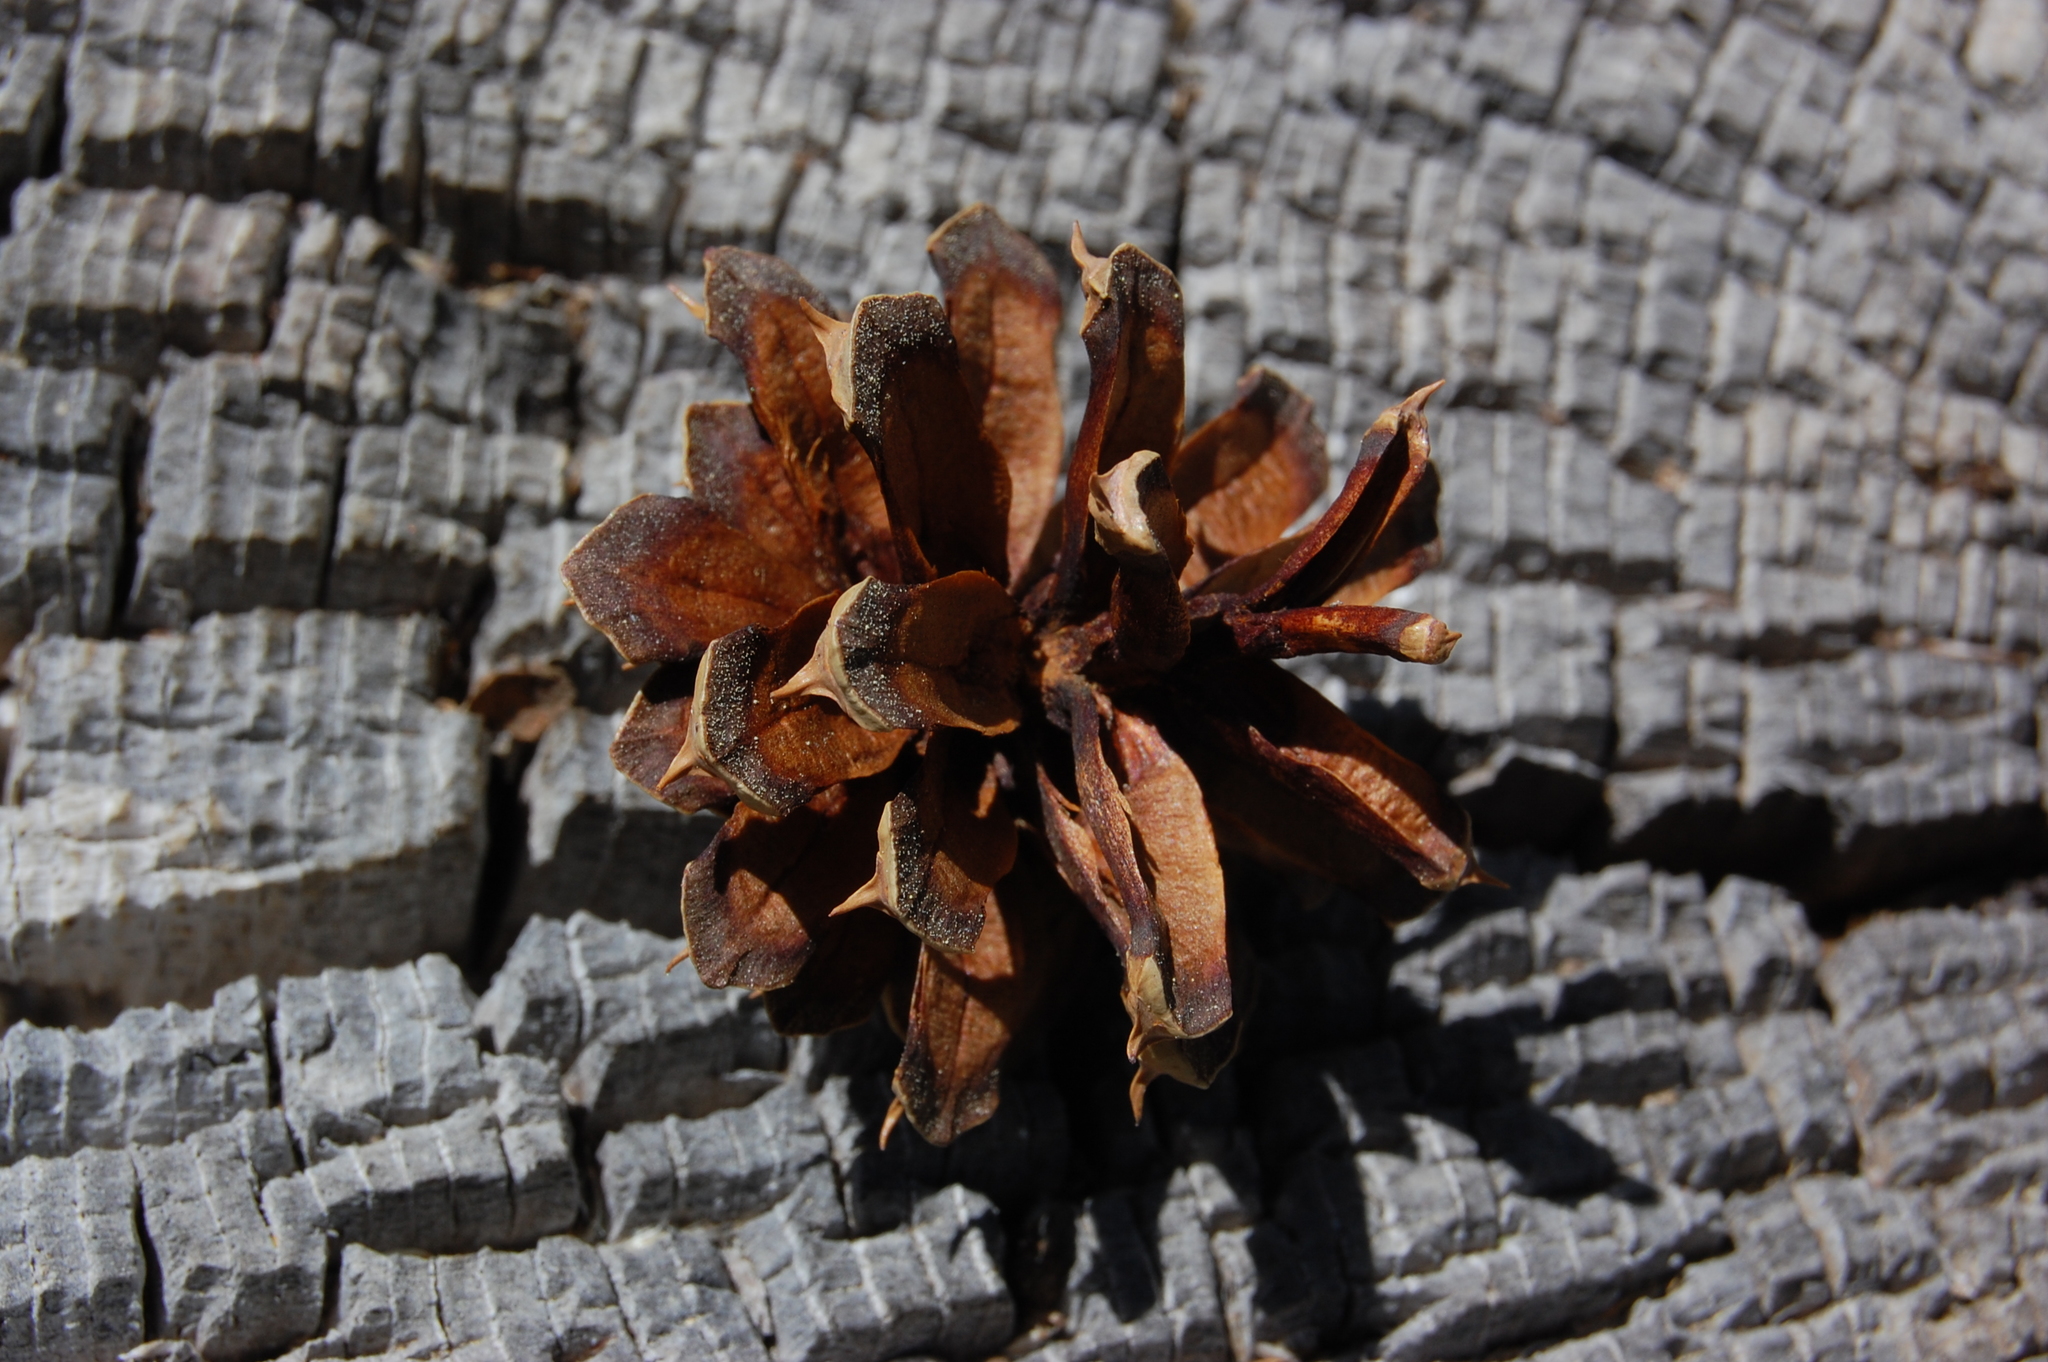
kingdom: Plantae
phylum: Tracheophyta
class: Pinopsida
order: Pinales
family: Pinaceae
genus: Pinus
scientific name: Pinus contorta
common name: Lodgepole pine
